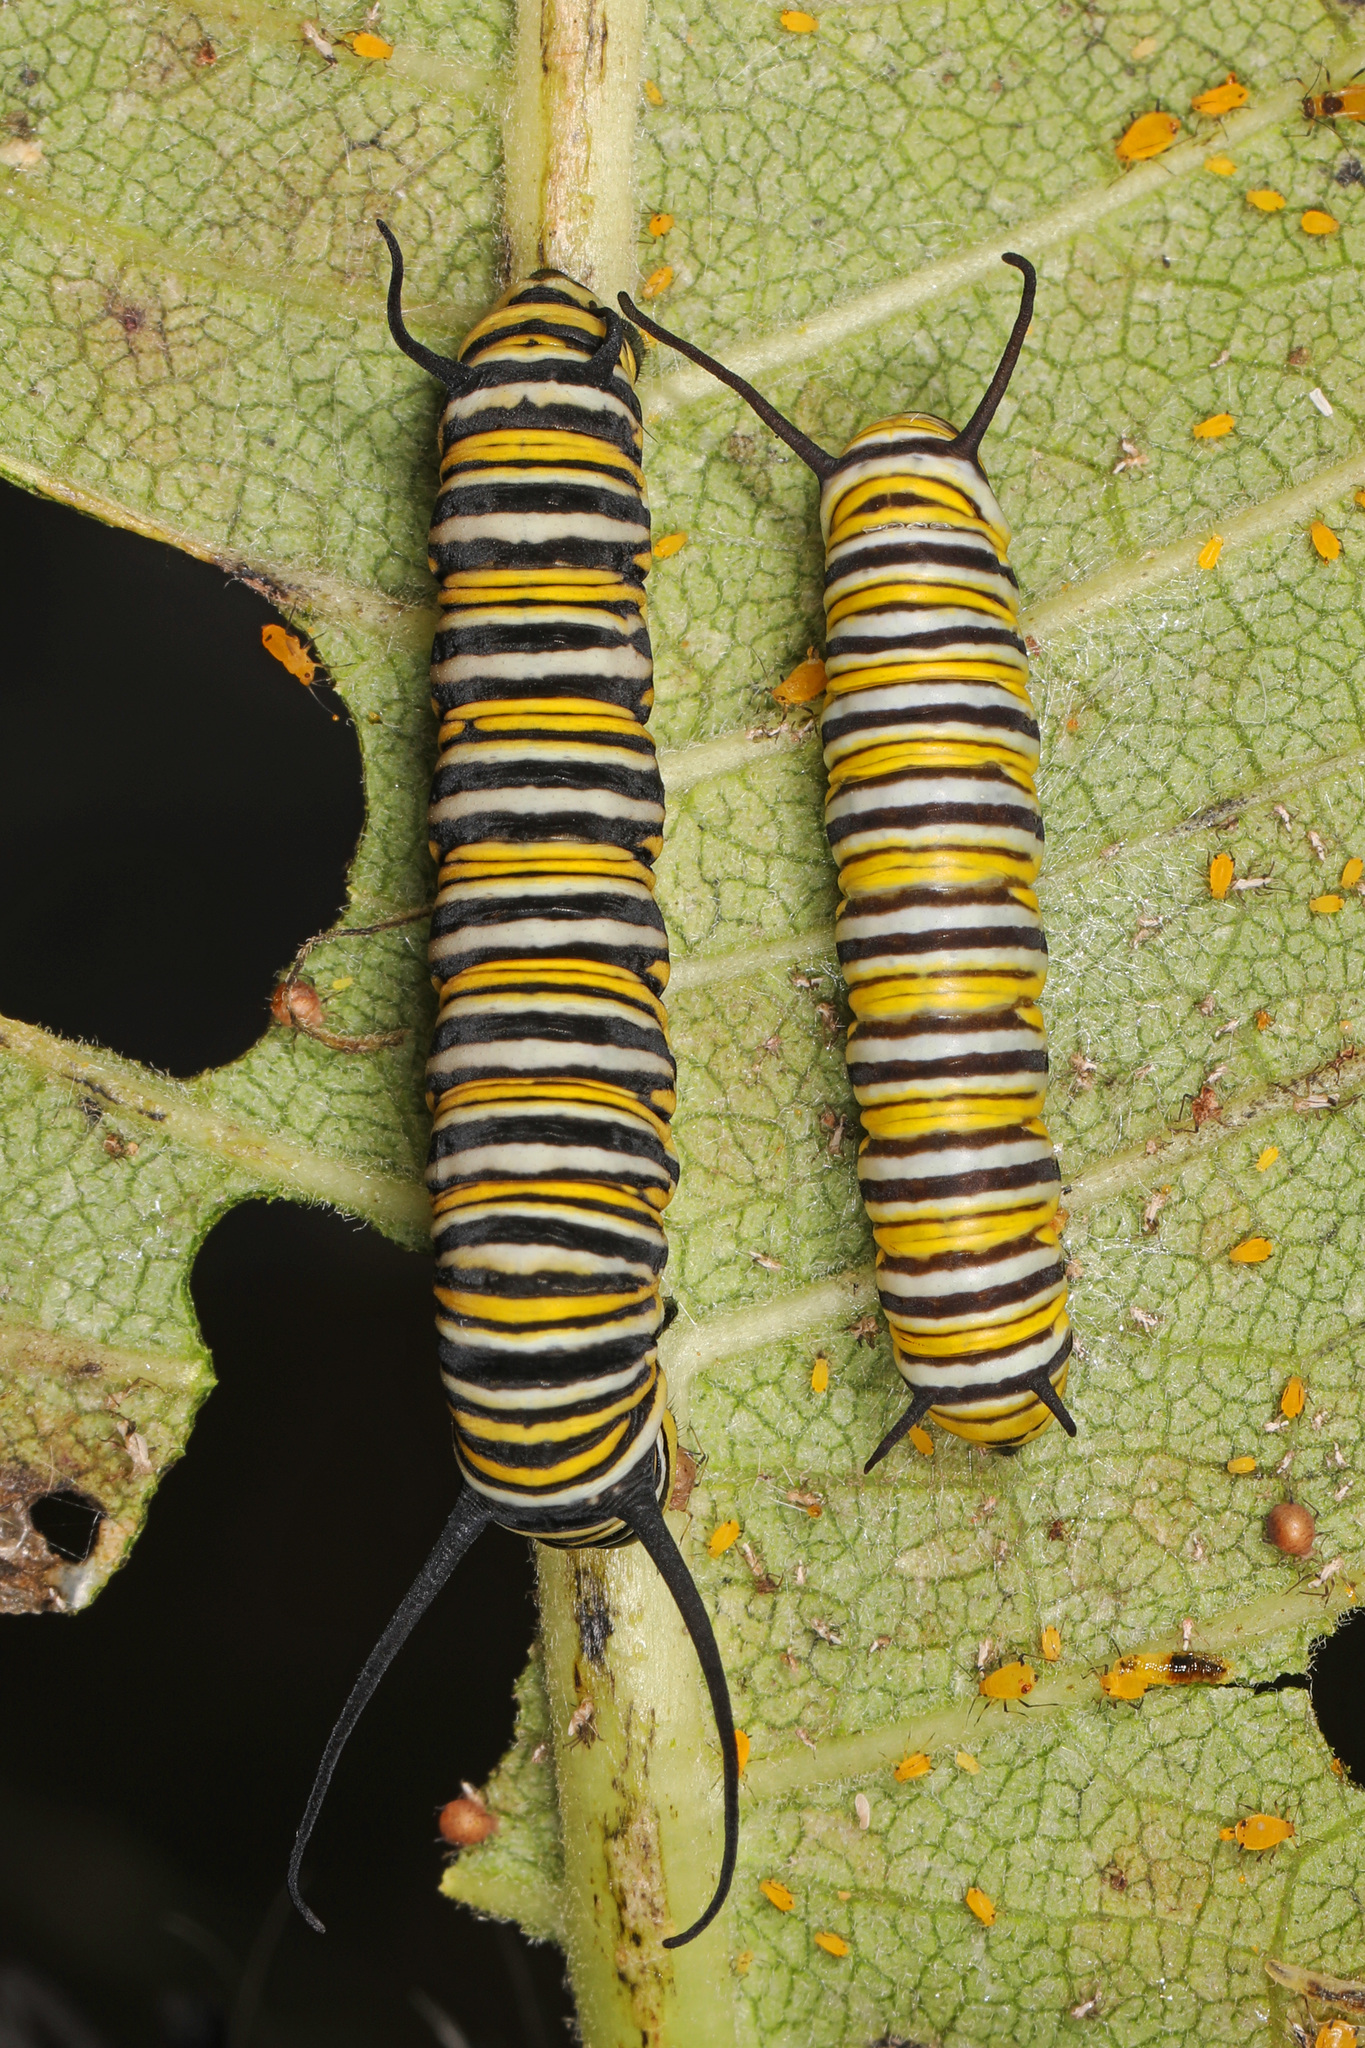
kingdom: Animalia
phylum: Arthropoda
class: Insecta
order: Lepidoptera
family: Nymphalidae
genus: Danaus
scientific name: Danaus plexippus
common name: Monarch
